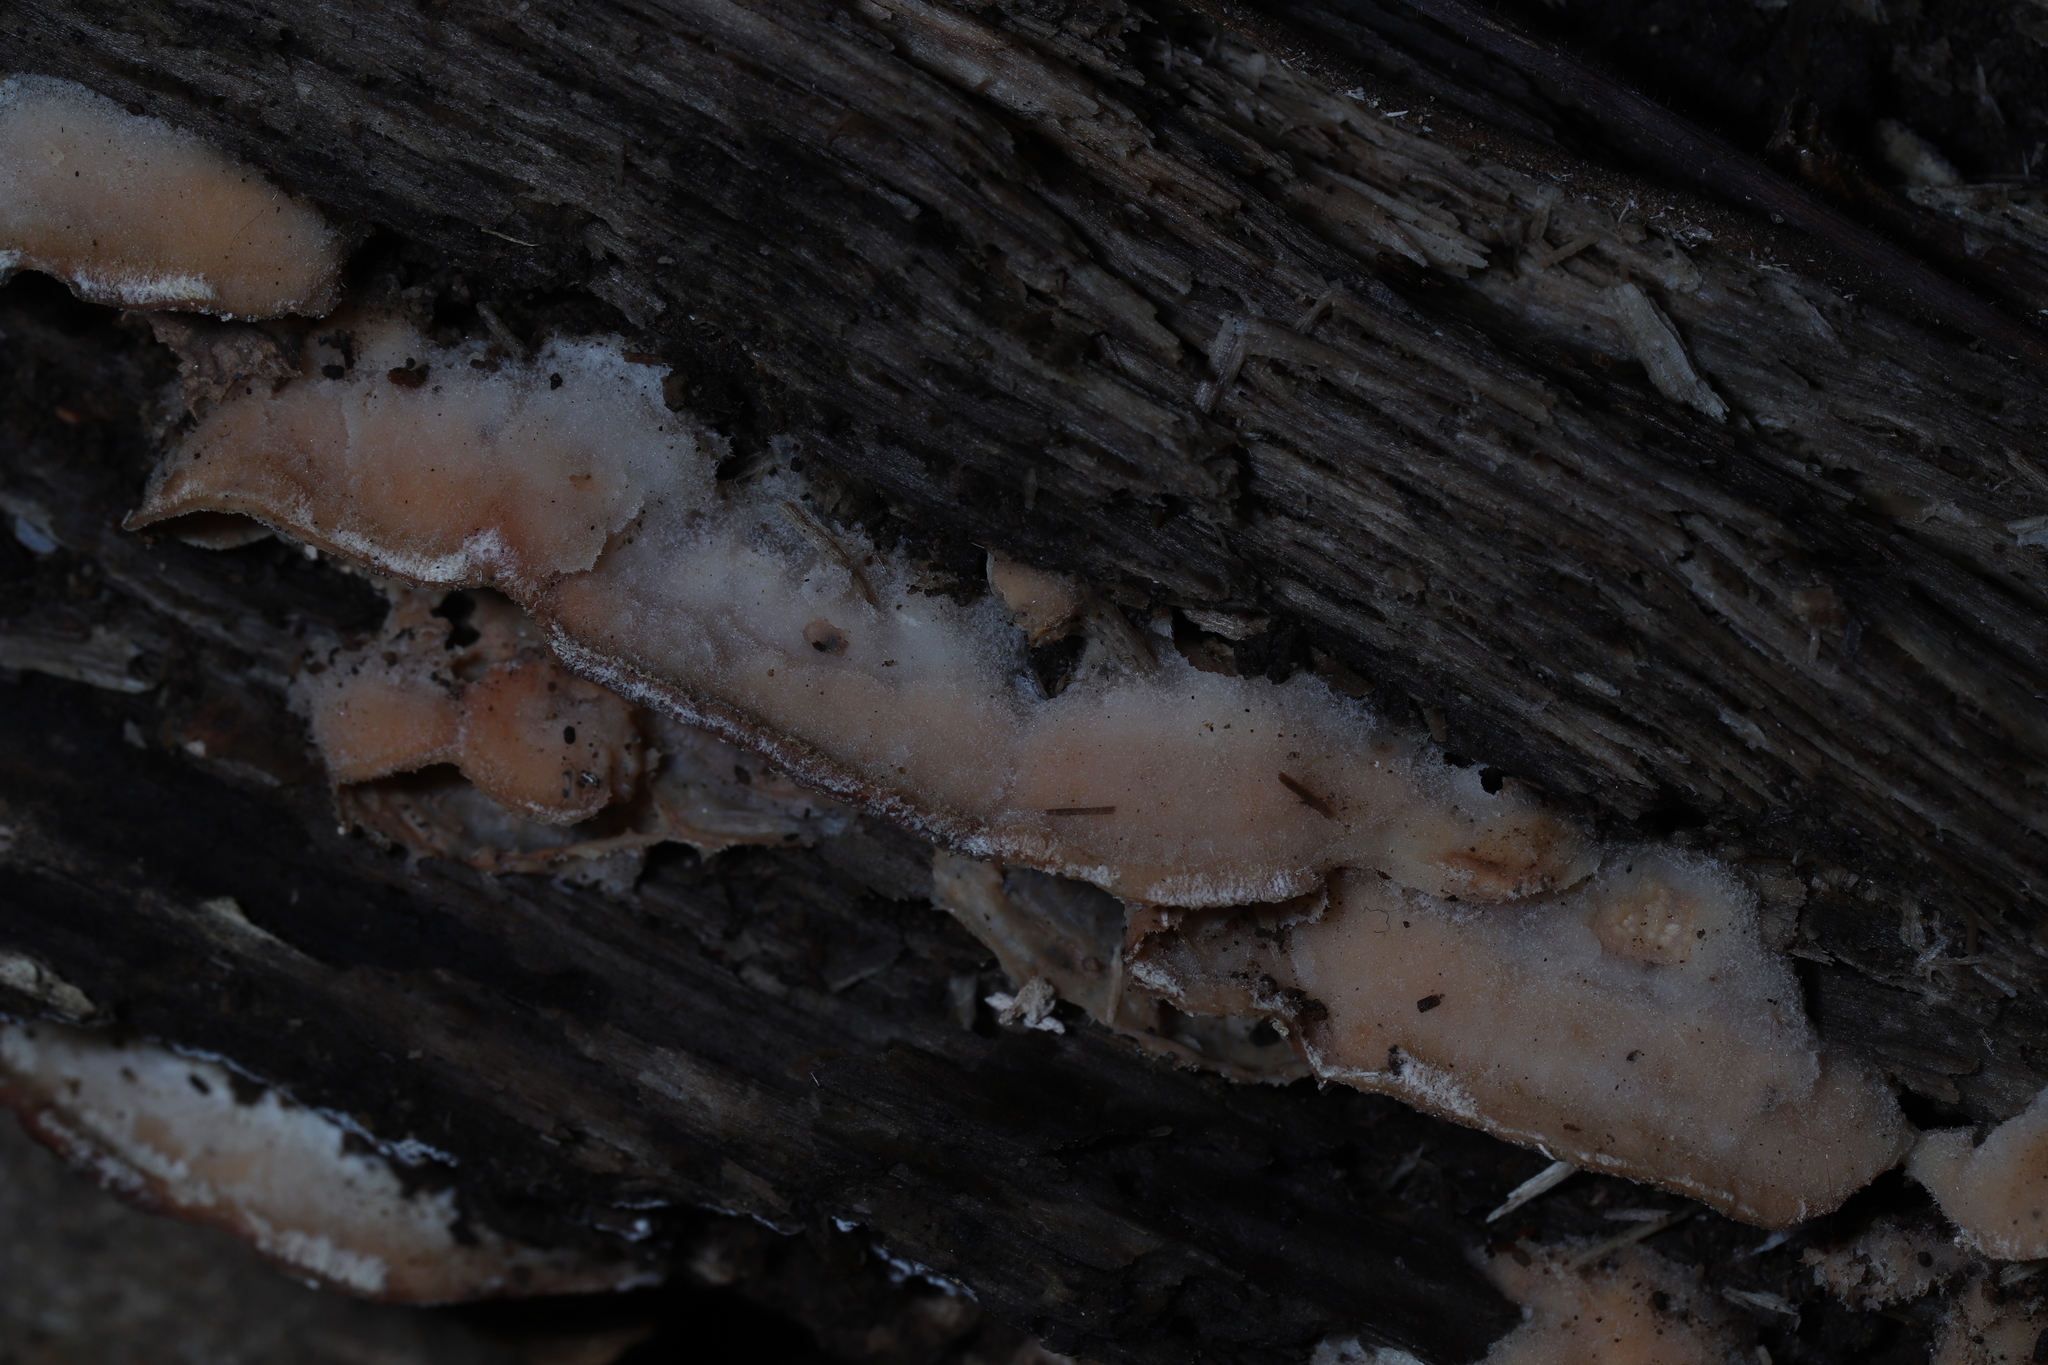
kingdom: Fungi
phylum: Basidiomycota
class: Agaricomycetes
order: Polyporales
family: Meruliaceae
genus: Phlebia
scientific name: Phlebia tremellosa
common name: Jelly rot
